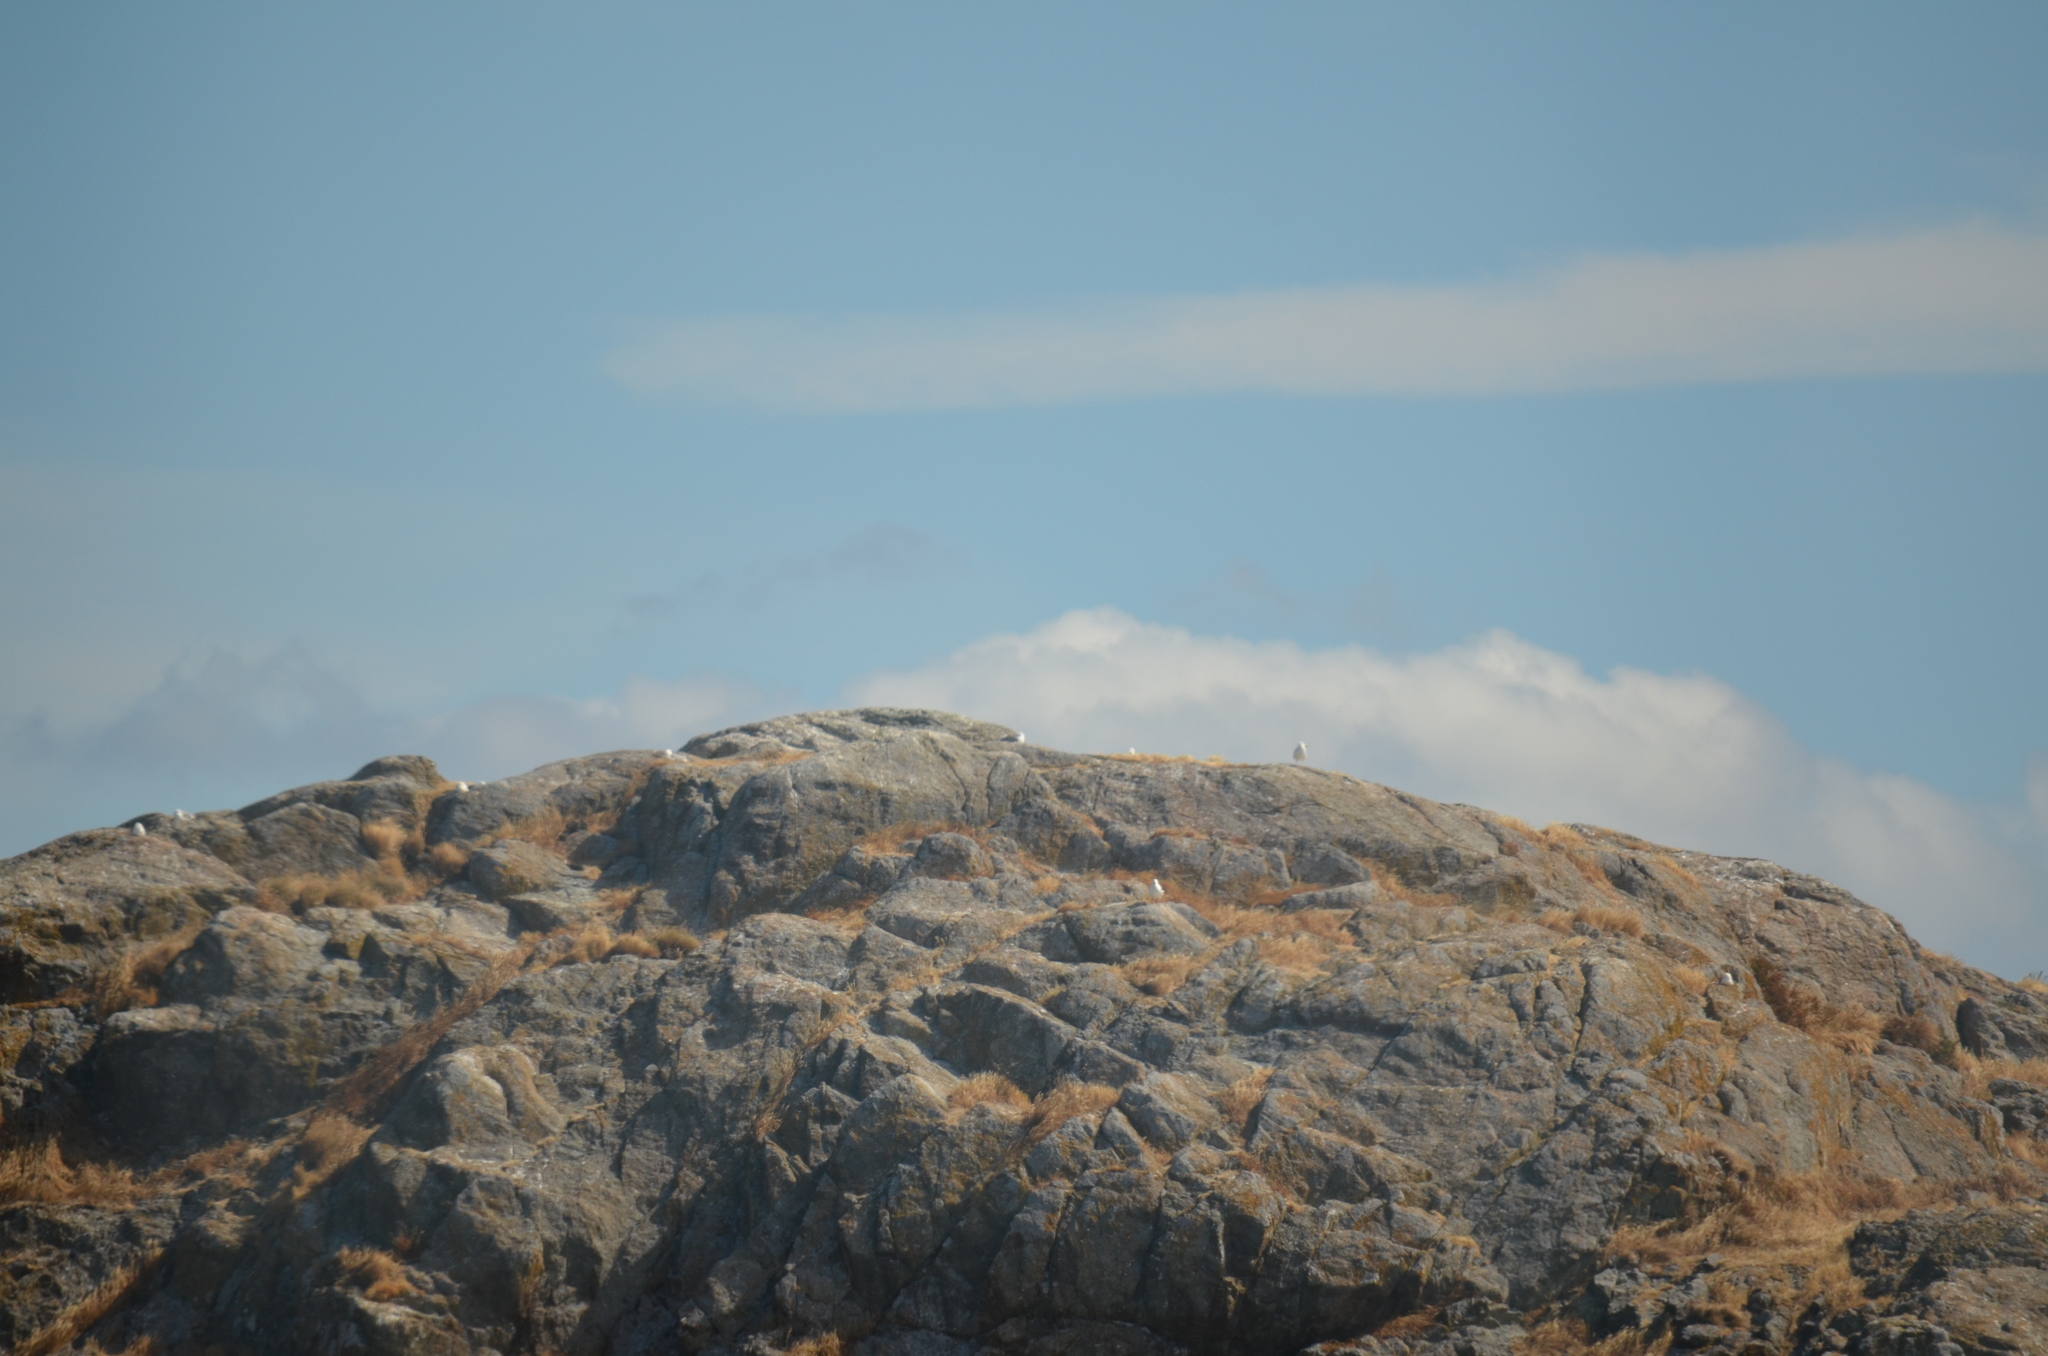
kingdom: Animalia
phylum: Chordata
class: Aves
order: Charadriiformes
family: Laridae
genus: Larus
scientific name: Larus glaucescens
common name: Glaucous-winged gull
